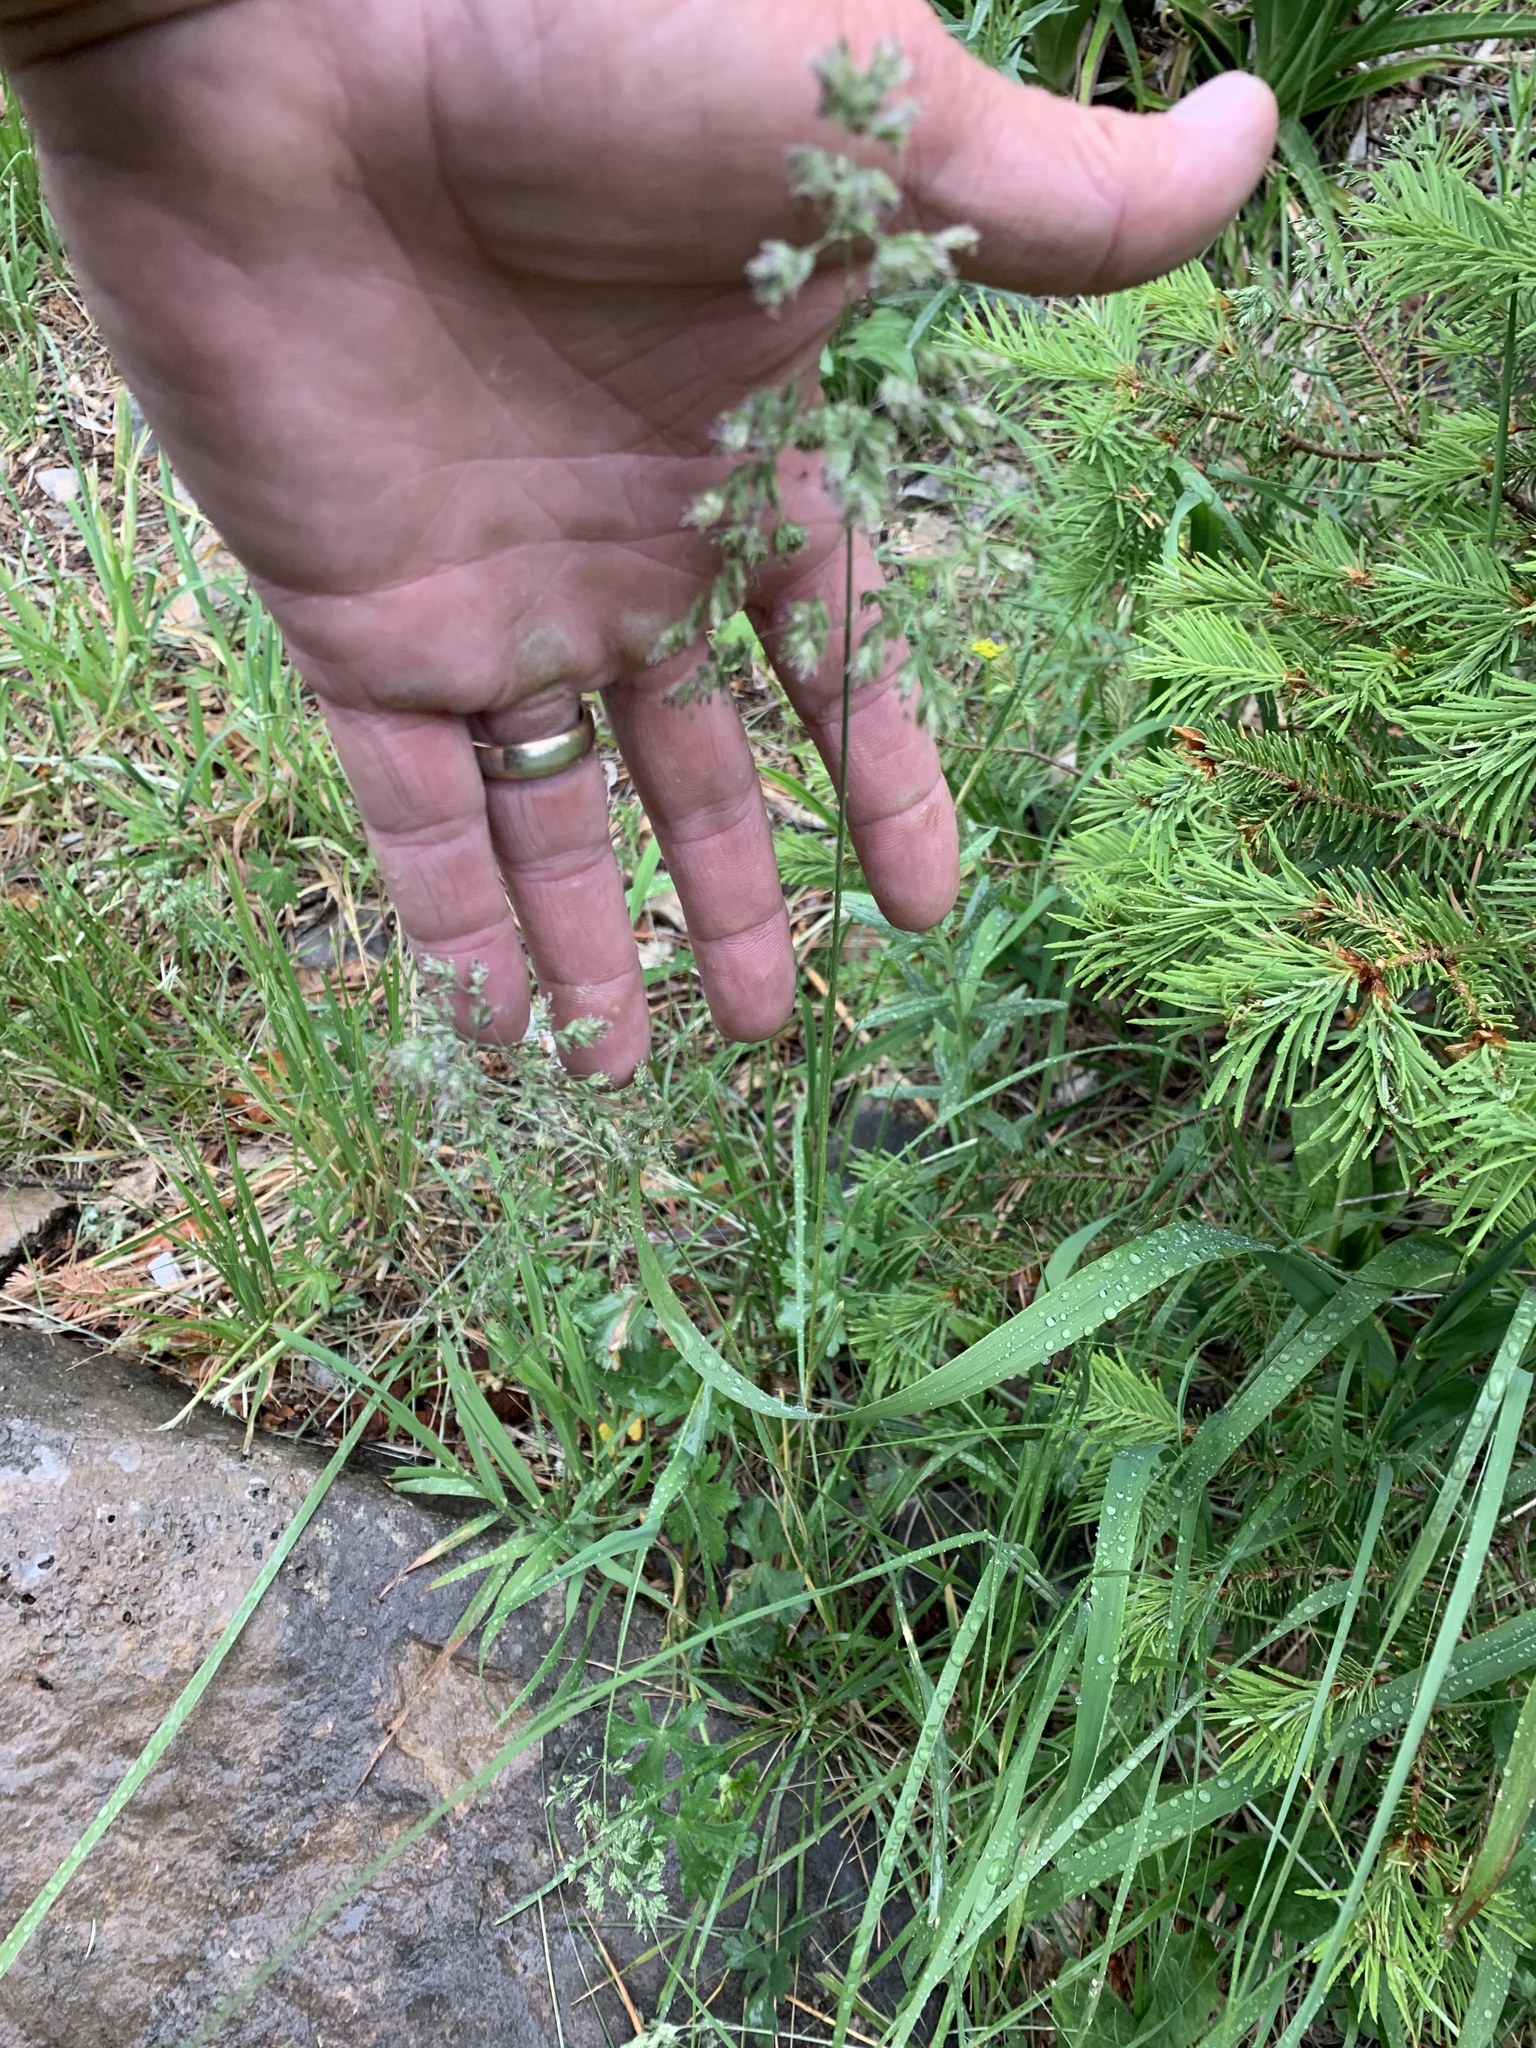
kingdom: Plantae
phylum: Tracheophyta
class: Liliopsida
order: Poales
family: Poaceae
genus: Poa
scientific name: Poa pratensis
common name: Kentucky bluegrass
